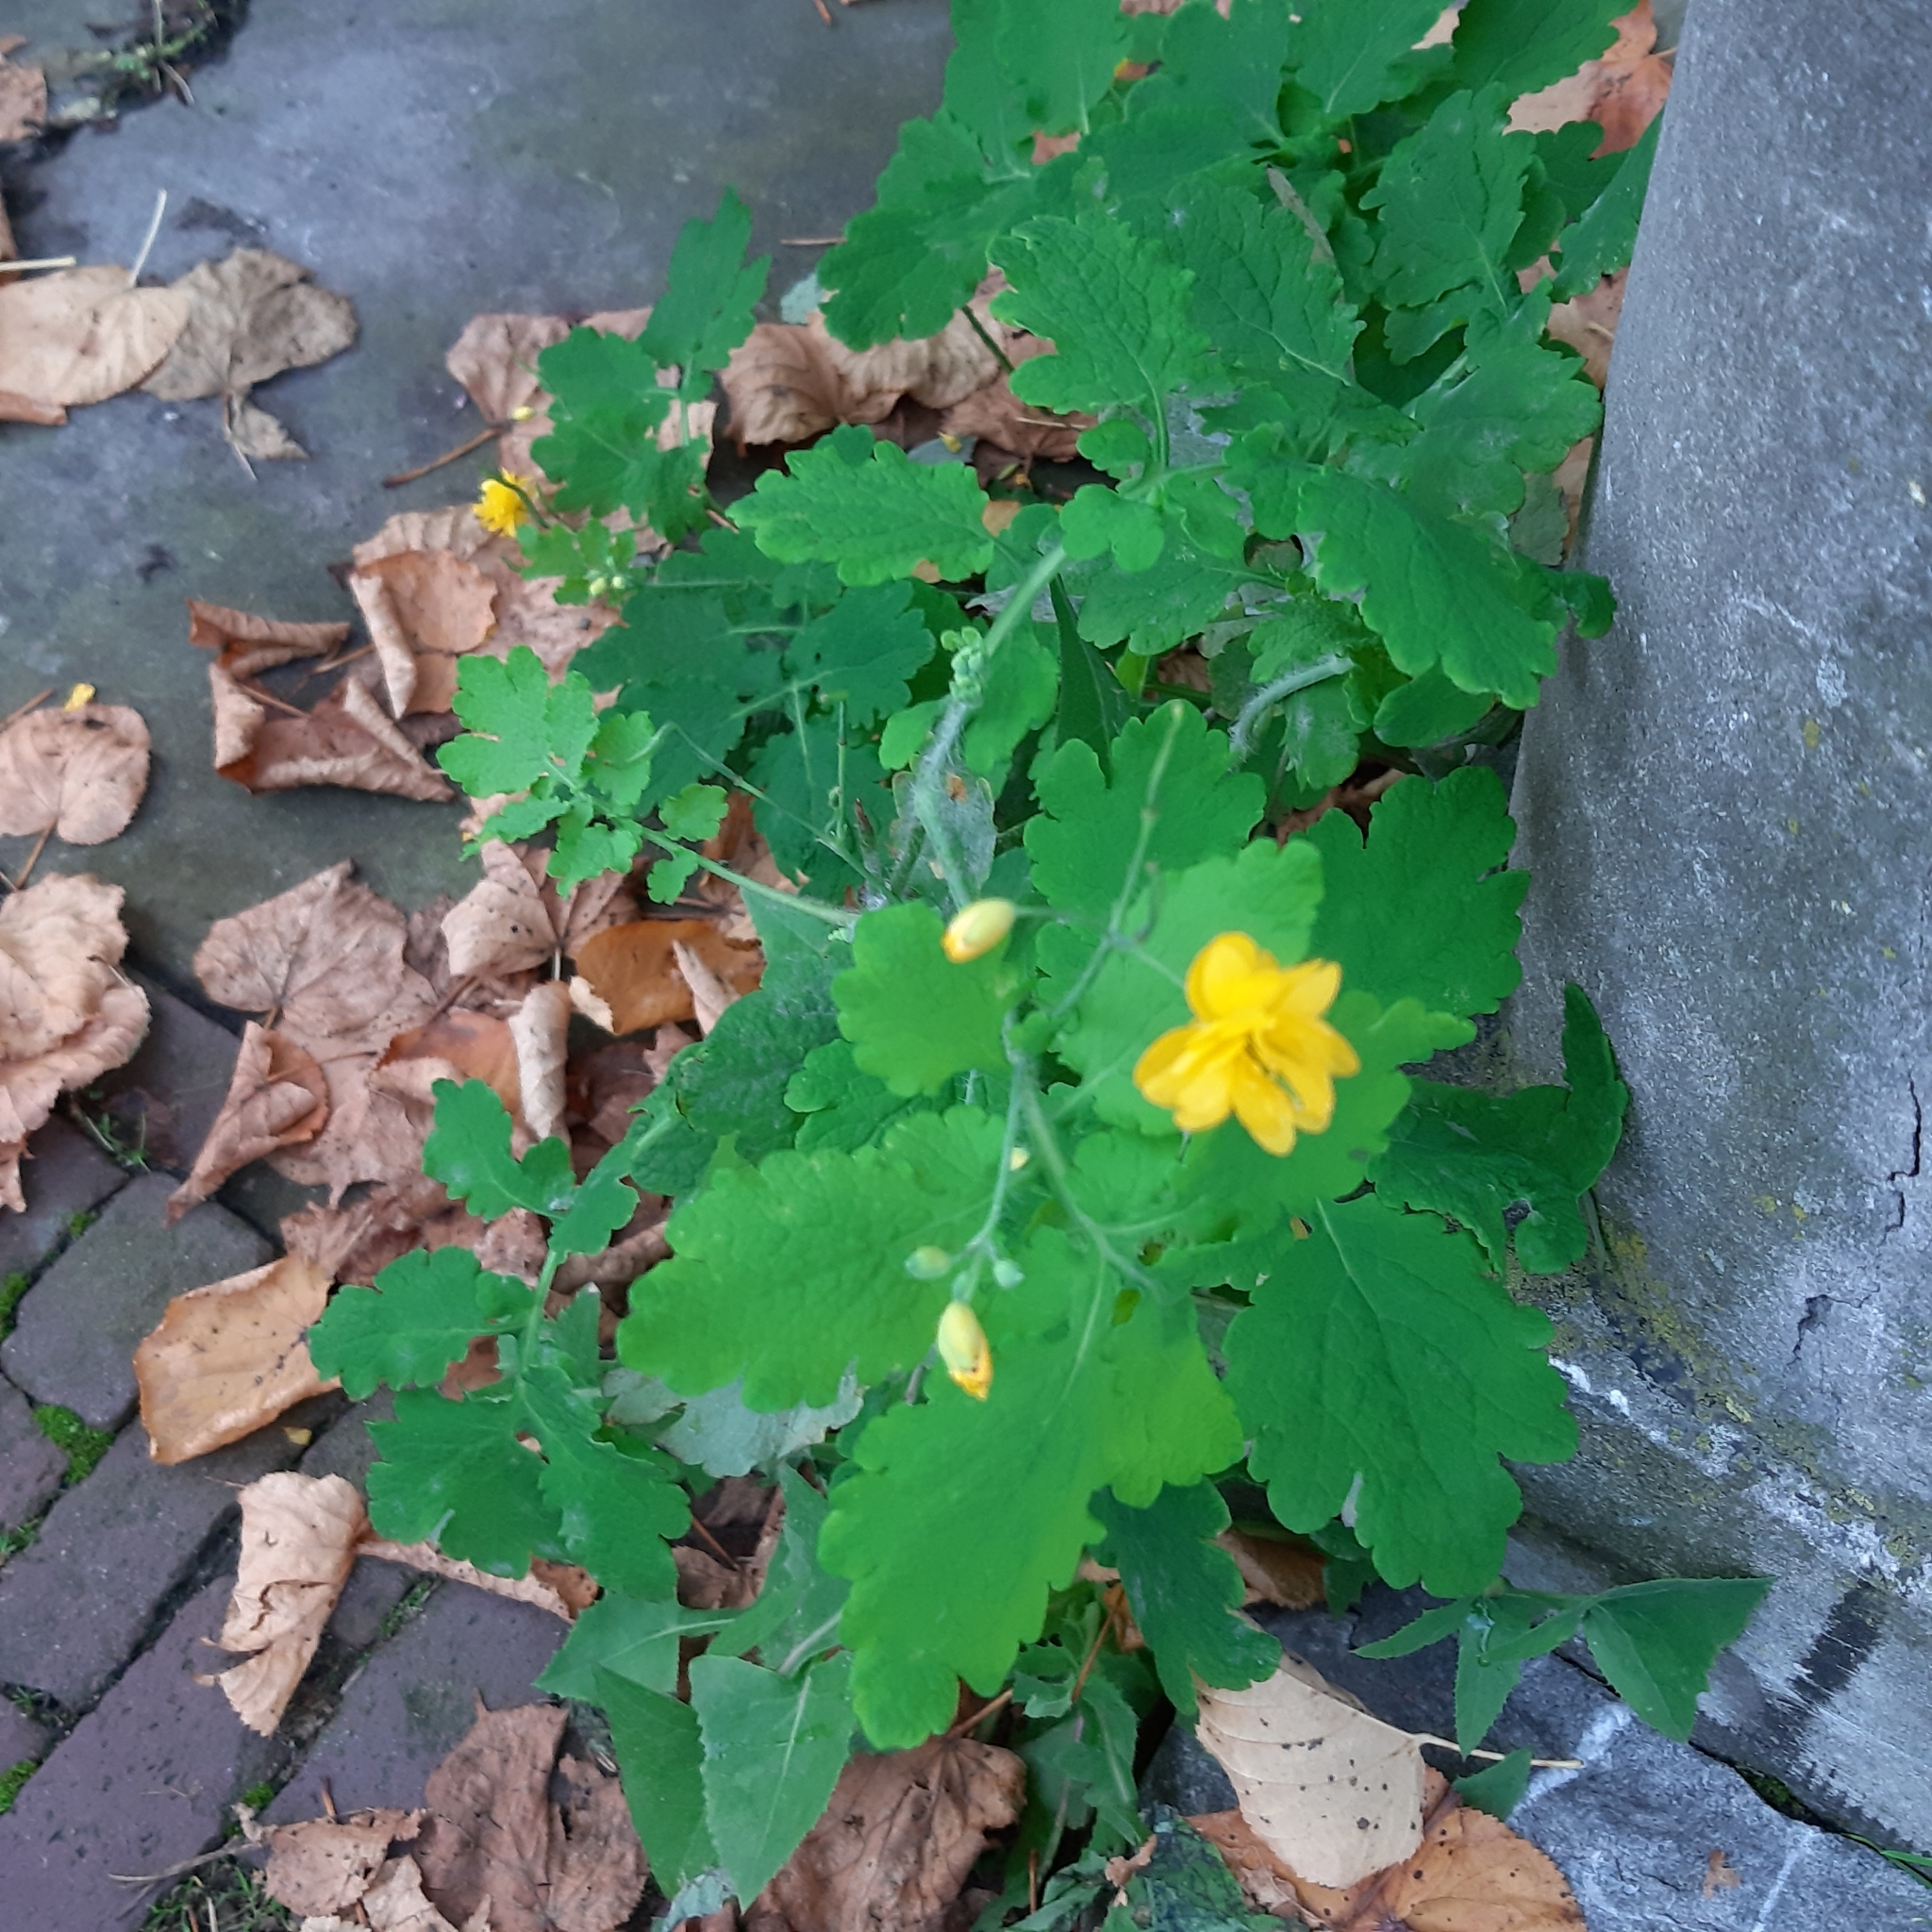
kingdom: Plantae
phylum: Tracheophyta
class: Magnoliopsida
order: Ranunculales
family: Papaveraceae
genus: Chelidonium
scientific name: Chelidonium majus
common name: Greater celandine
